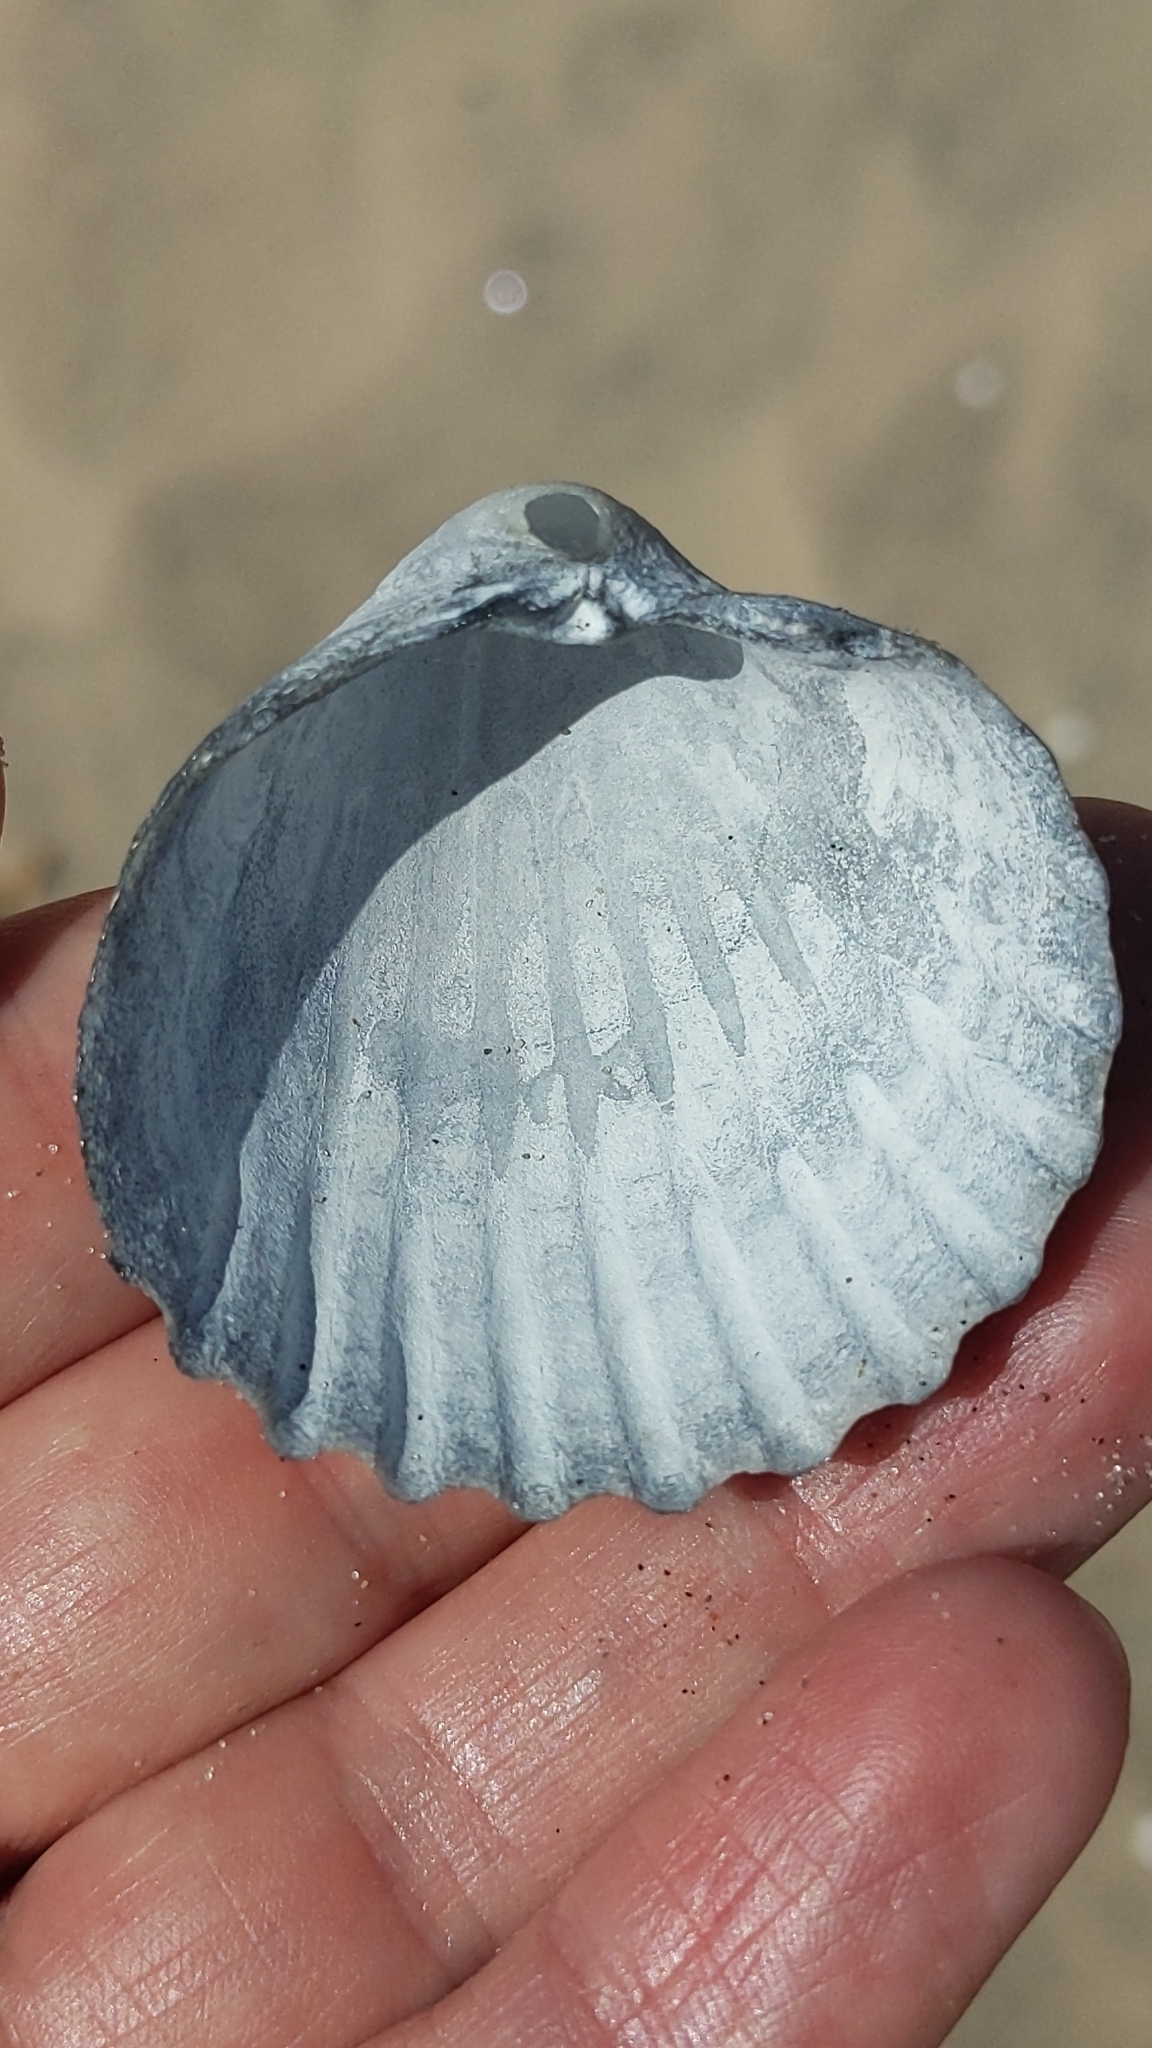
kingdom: Animalia
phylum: Mollusca
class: Bivalvia
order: Cardiida
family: Cardiidae
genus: Acanthocardia
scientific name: Acanthocardia echinata
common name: Prickly cockle
